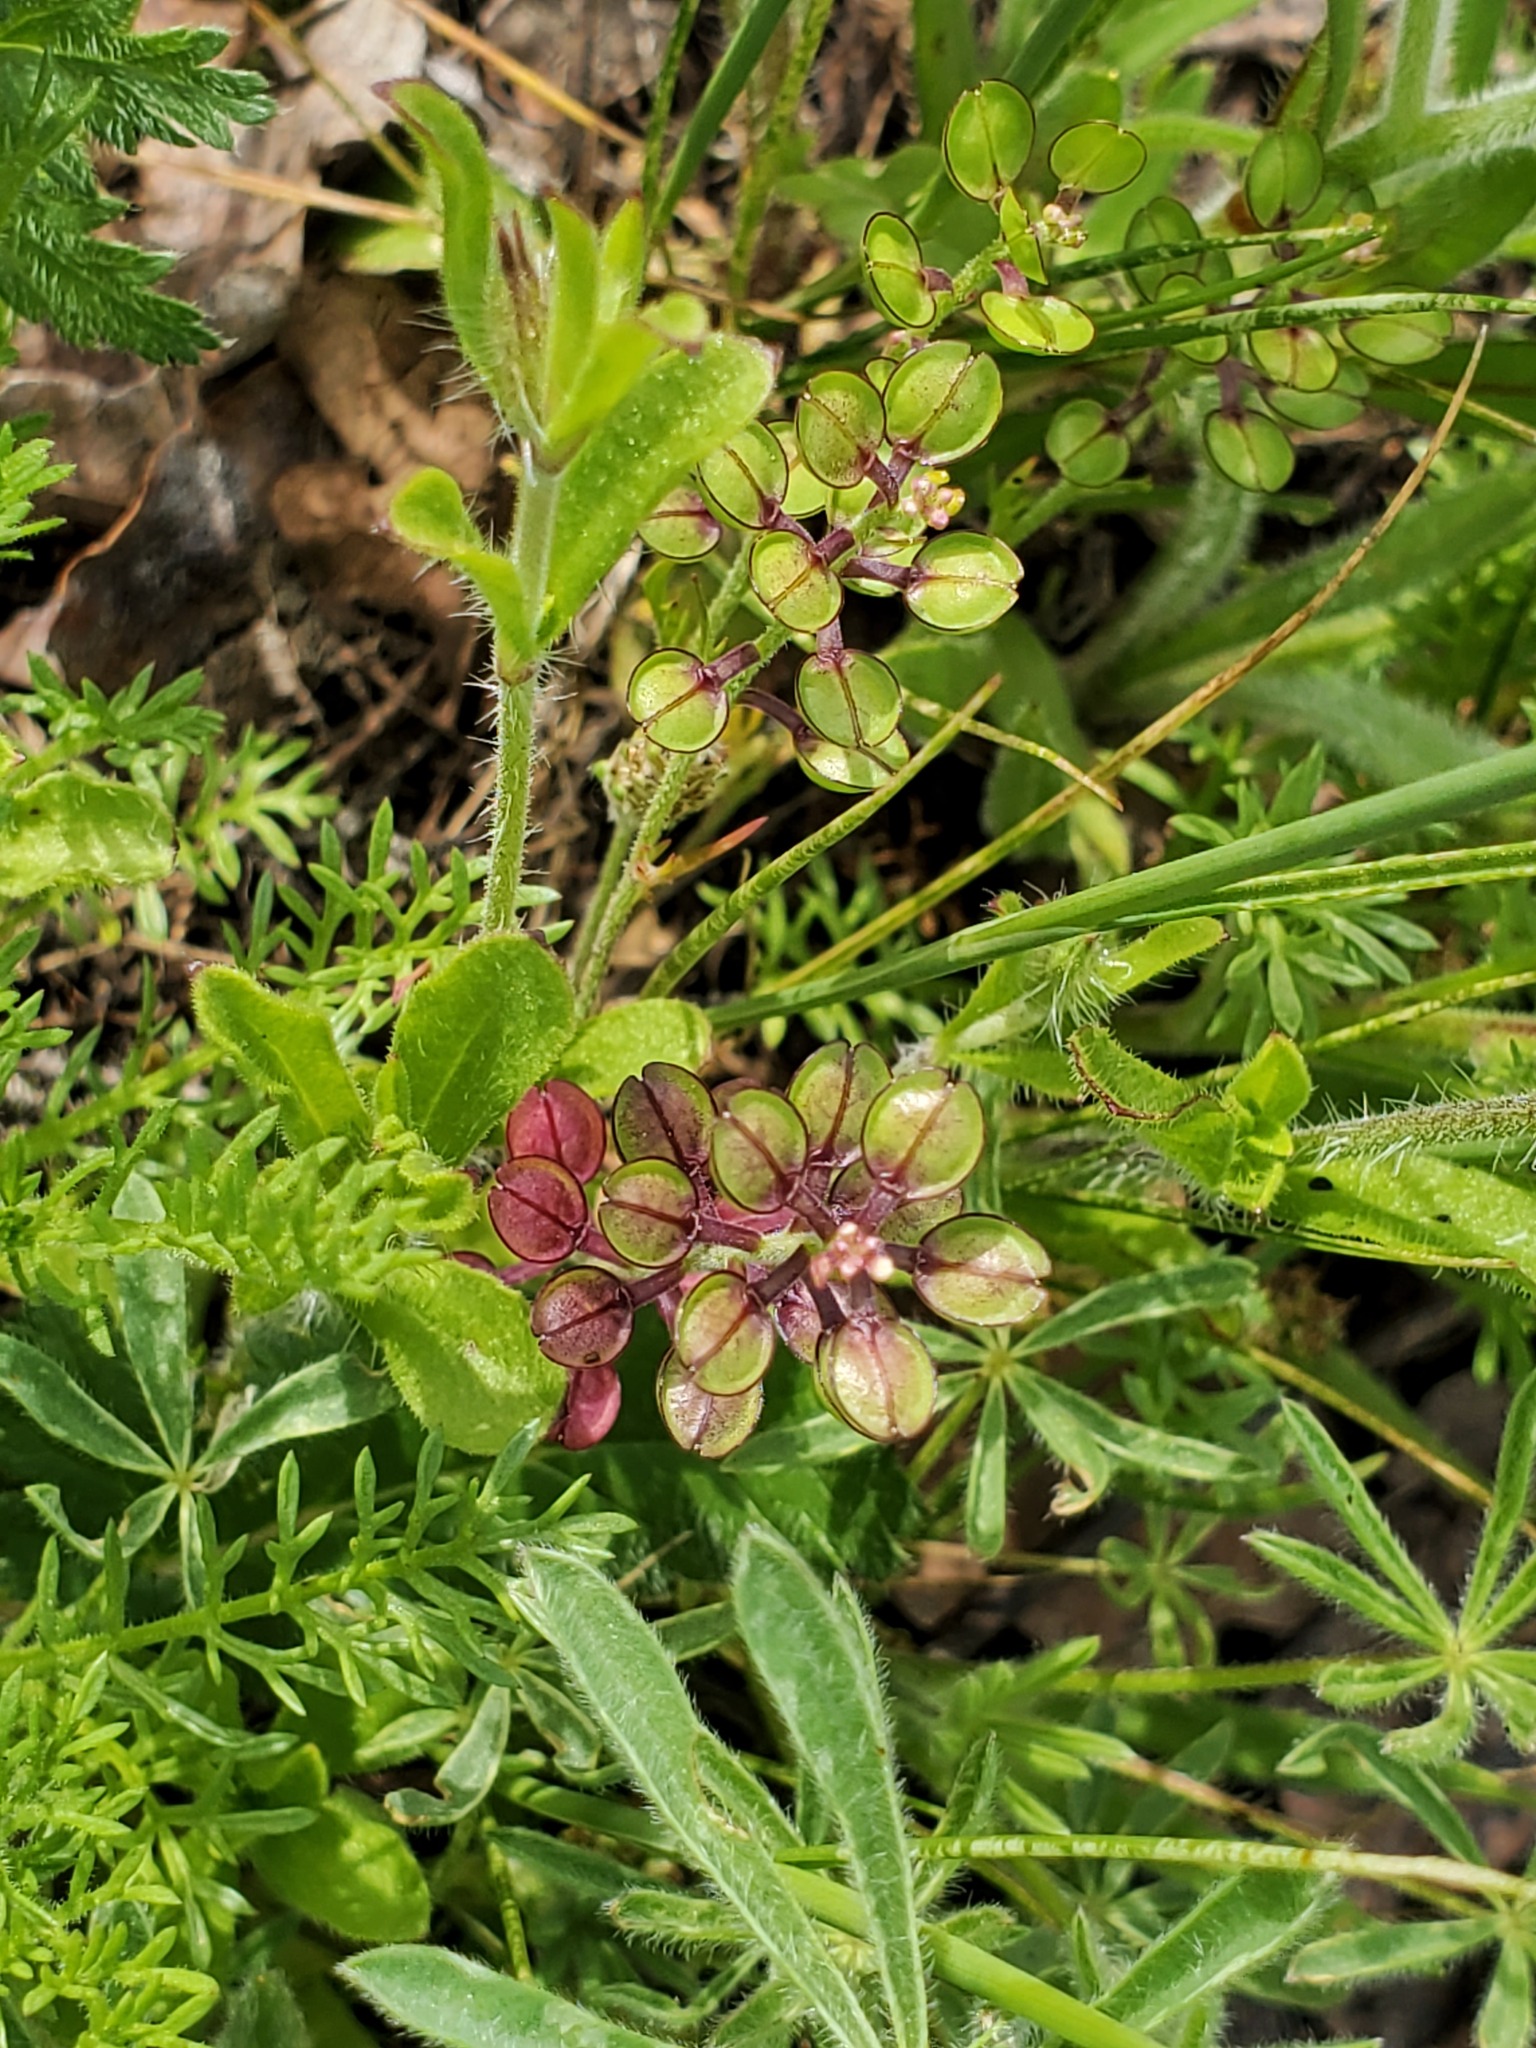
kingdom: Plantae
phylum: Tracheophyta
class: Magnoliopsida
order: Brassicales
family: Brassicaceae
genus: Lepidium
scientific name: Lepidium nitidum
